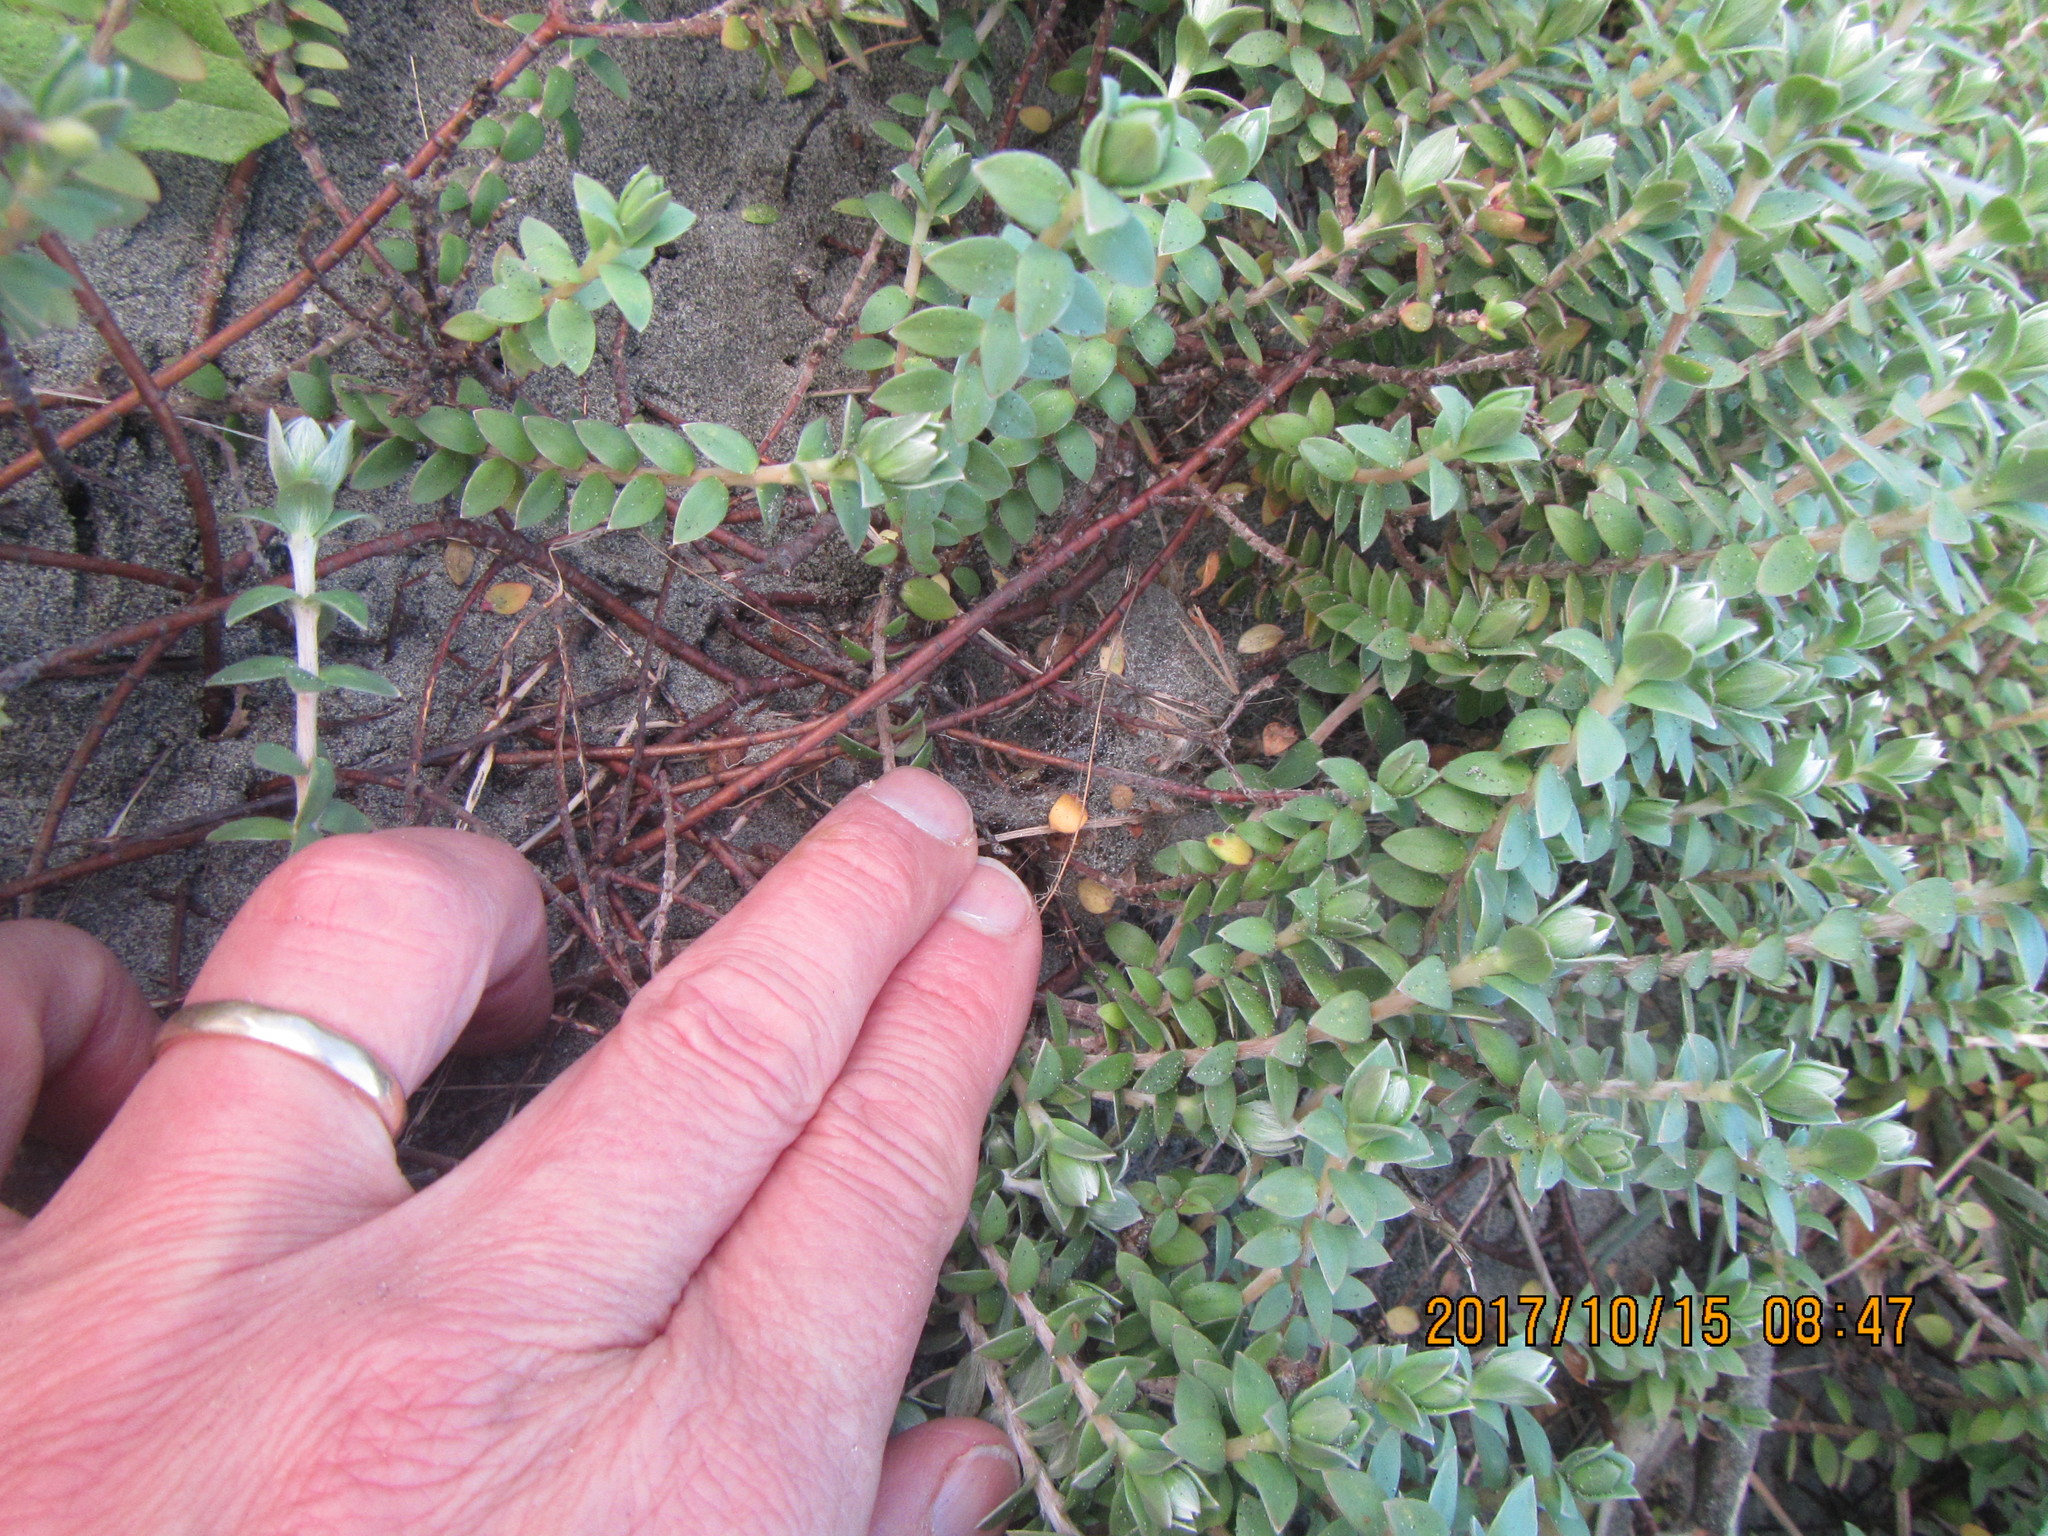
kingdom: Animalia
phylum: Arthropoda
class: Arachnida
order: Araneae
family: Theridiidae
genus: Latrodectus
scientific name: Latrodectus katipo
